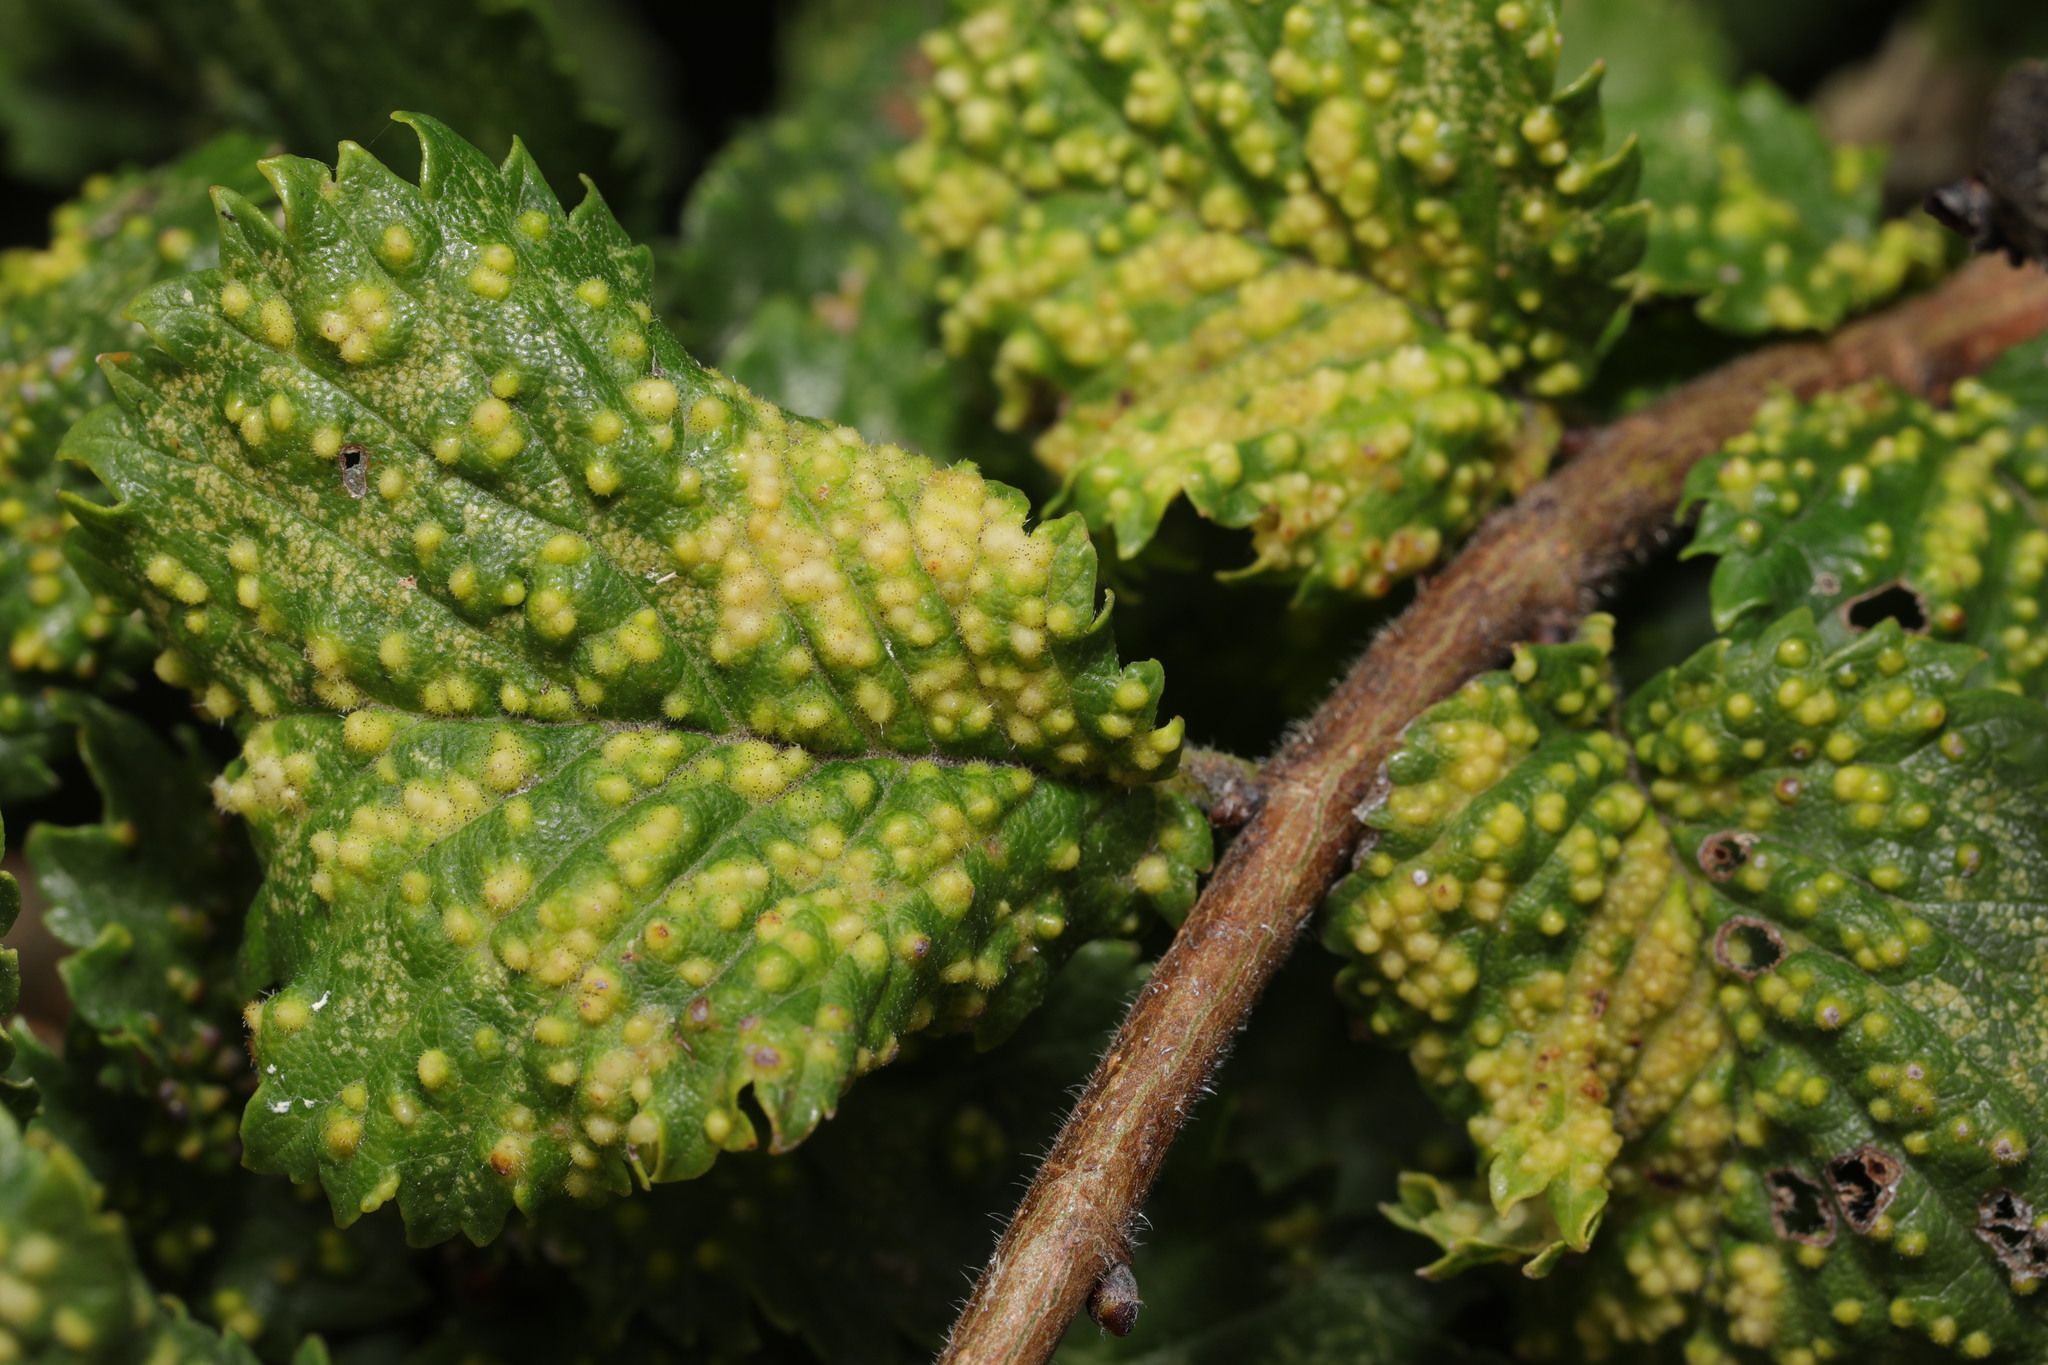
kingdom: Animalia
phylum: Arthropoda
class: Arachnida
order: Trombidiformes
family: Eriophyidae
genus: Aceria
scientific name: Aceria brevipunctata
